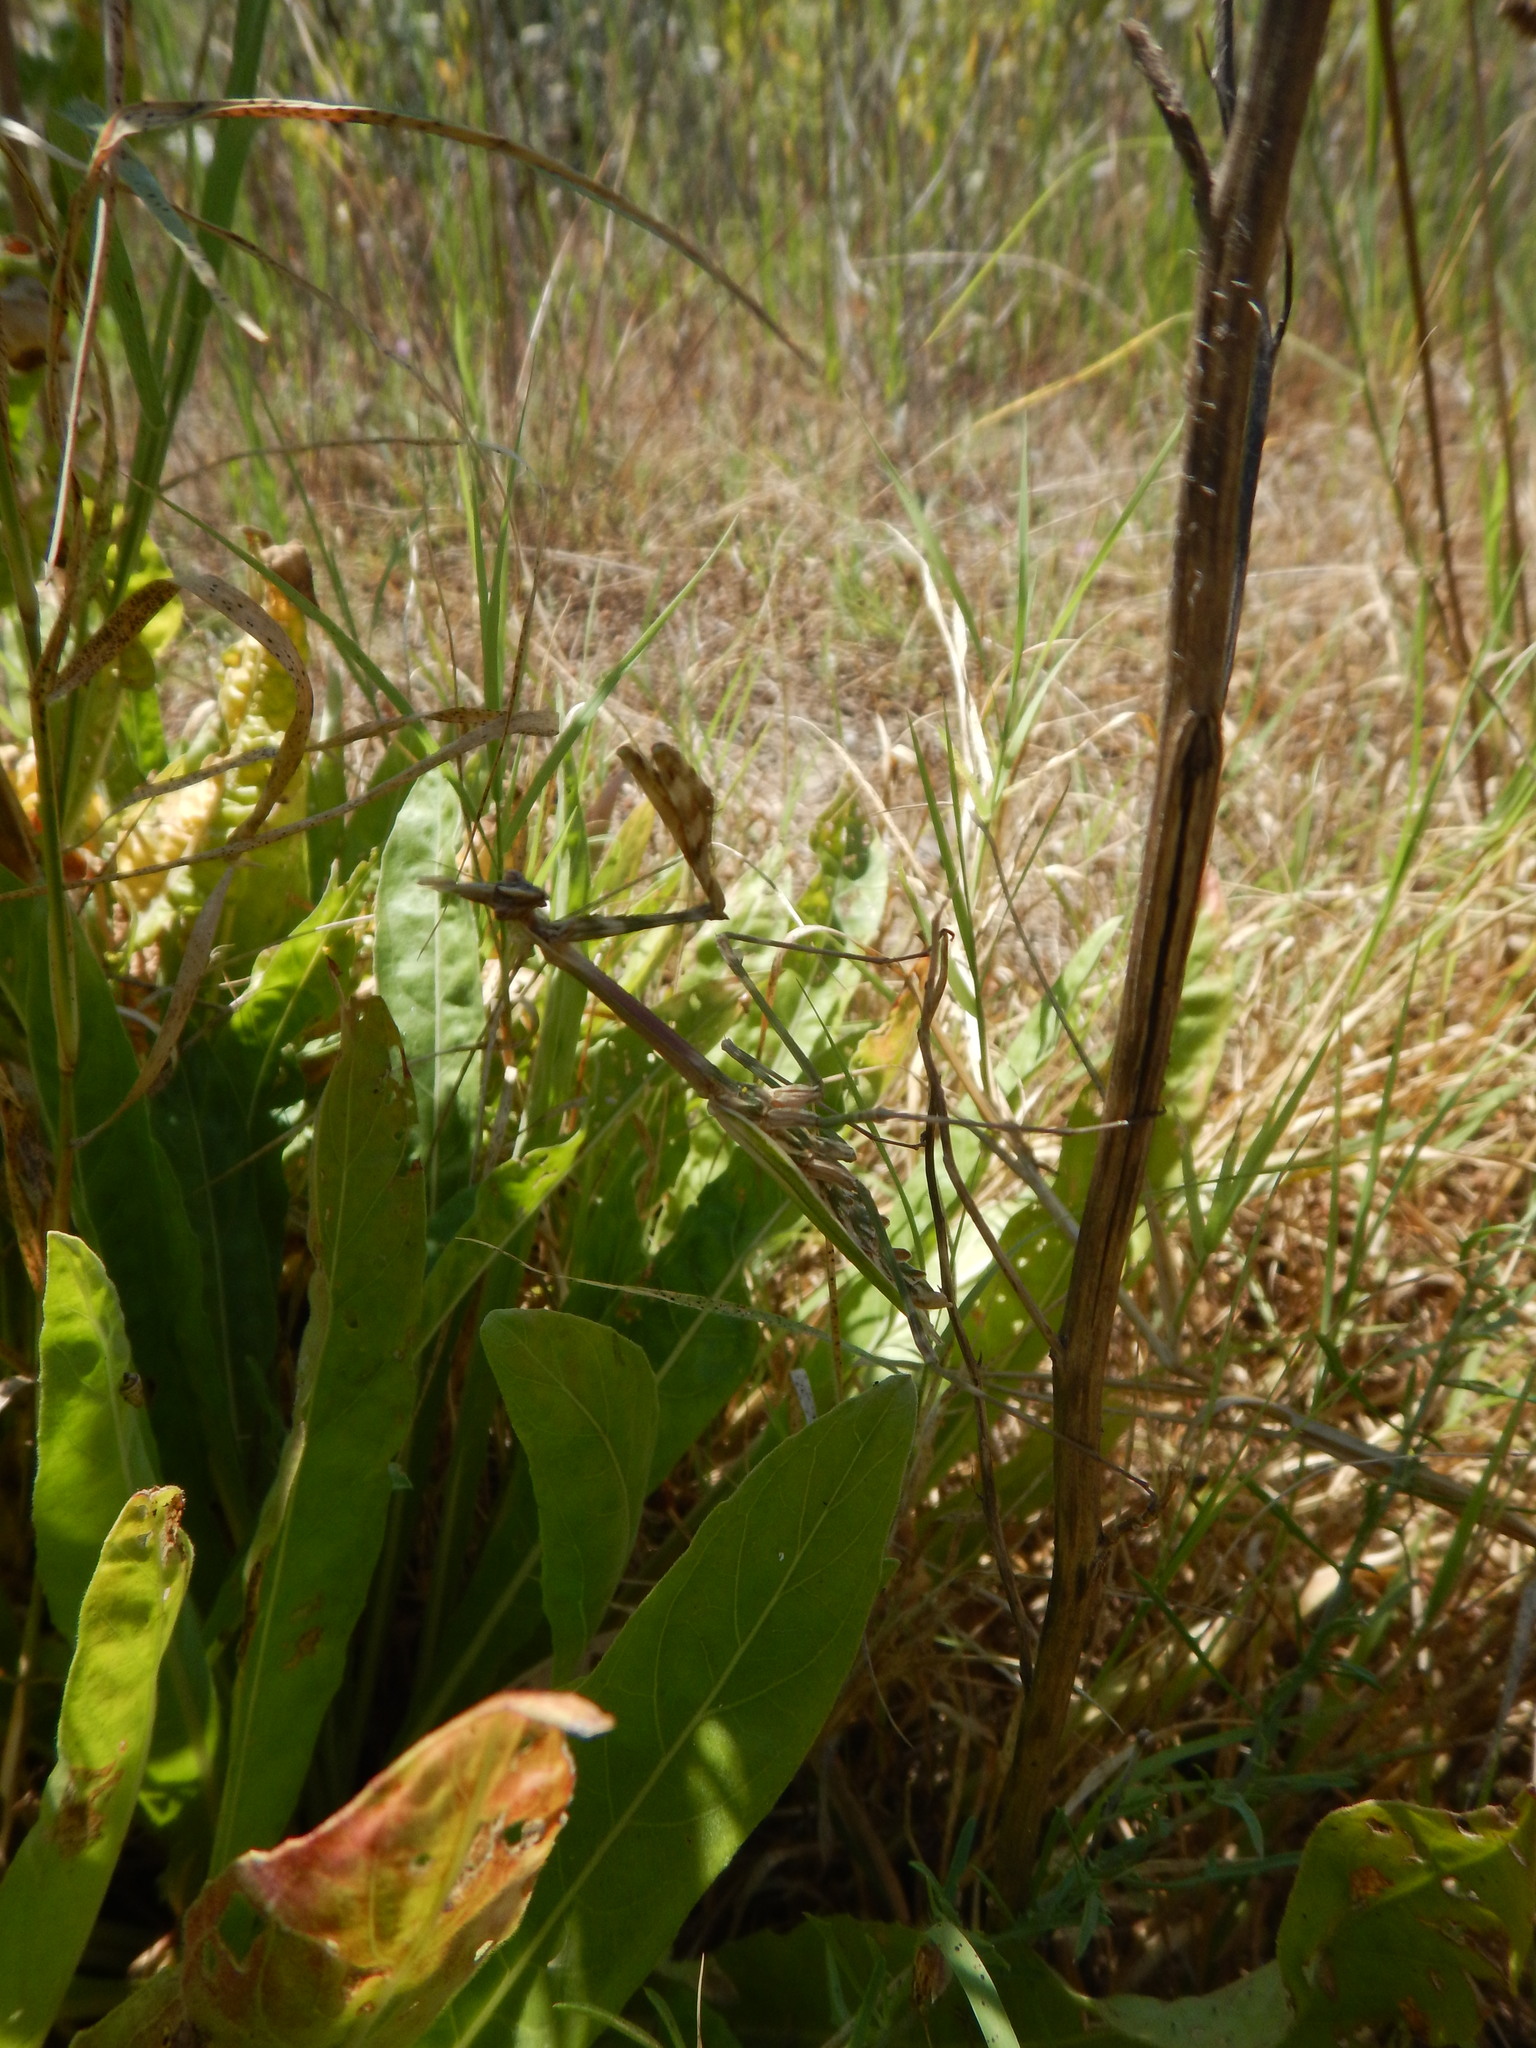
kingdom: Animalia
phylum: Arthropoda
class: Insecta
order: Mantodea
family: Empusidae
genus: Empusa
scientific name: Empusa pennata
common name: Conehead mantis
